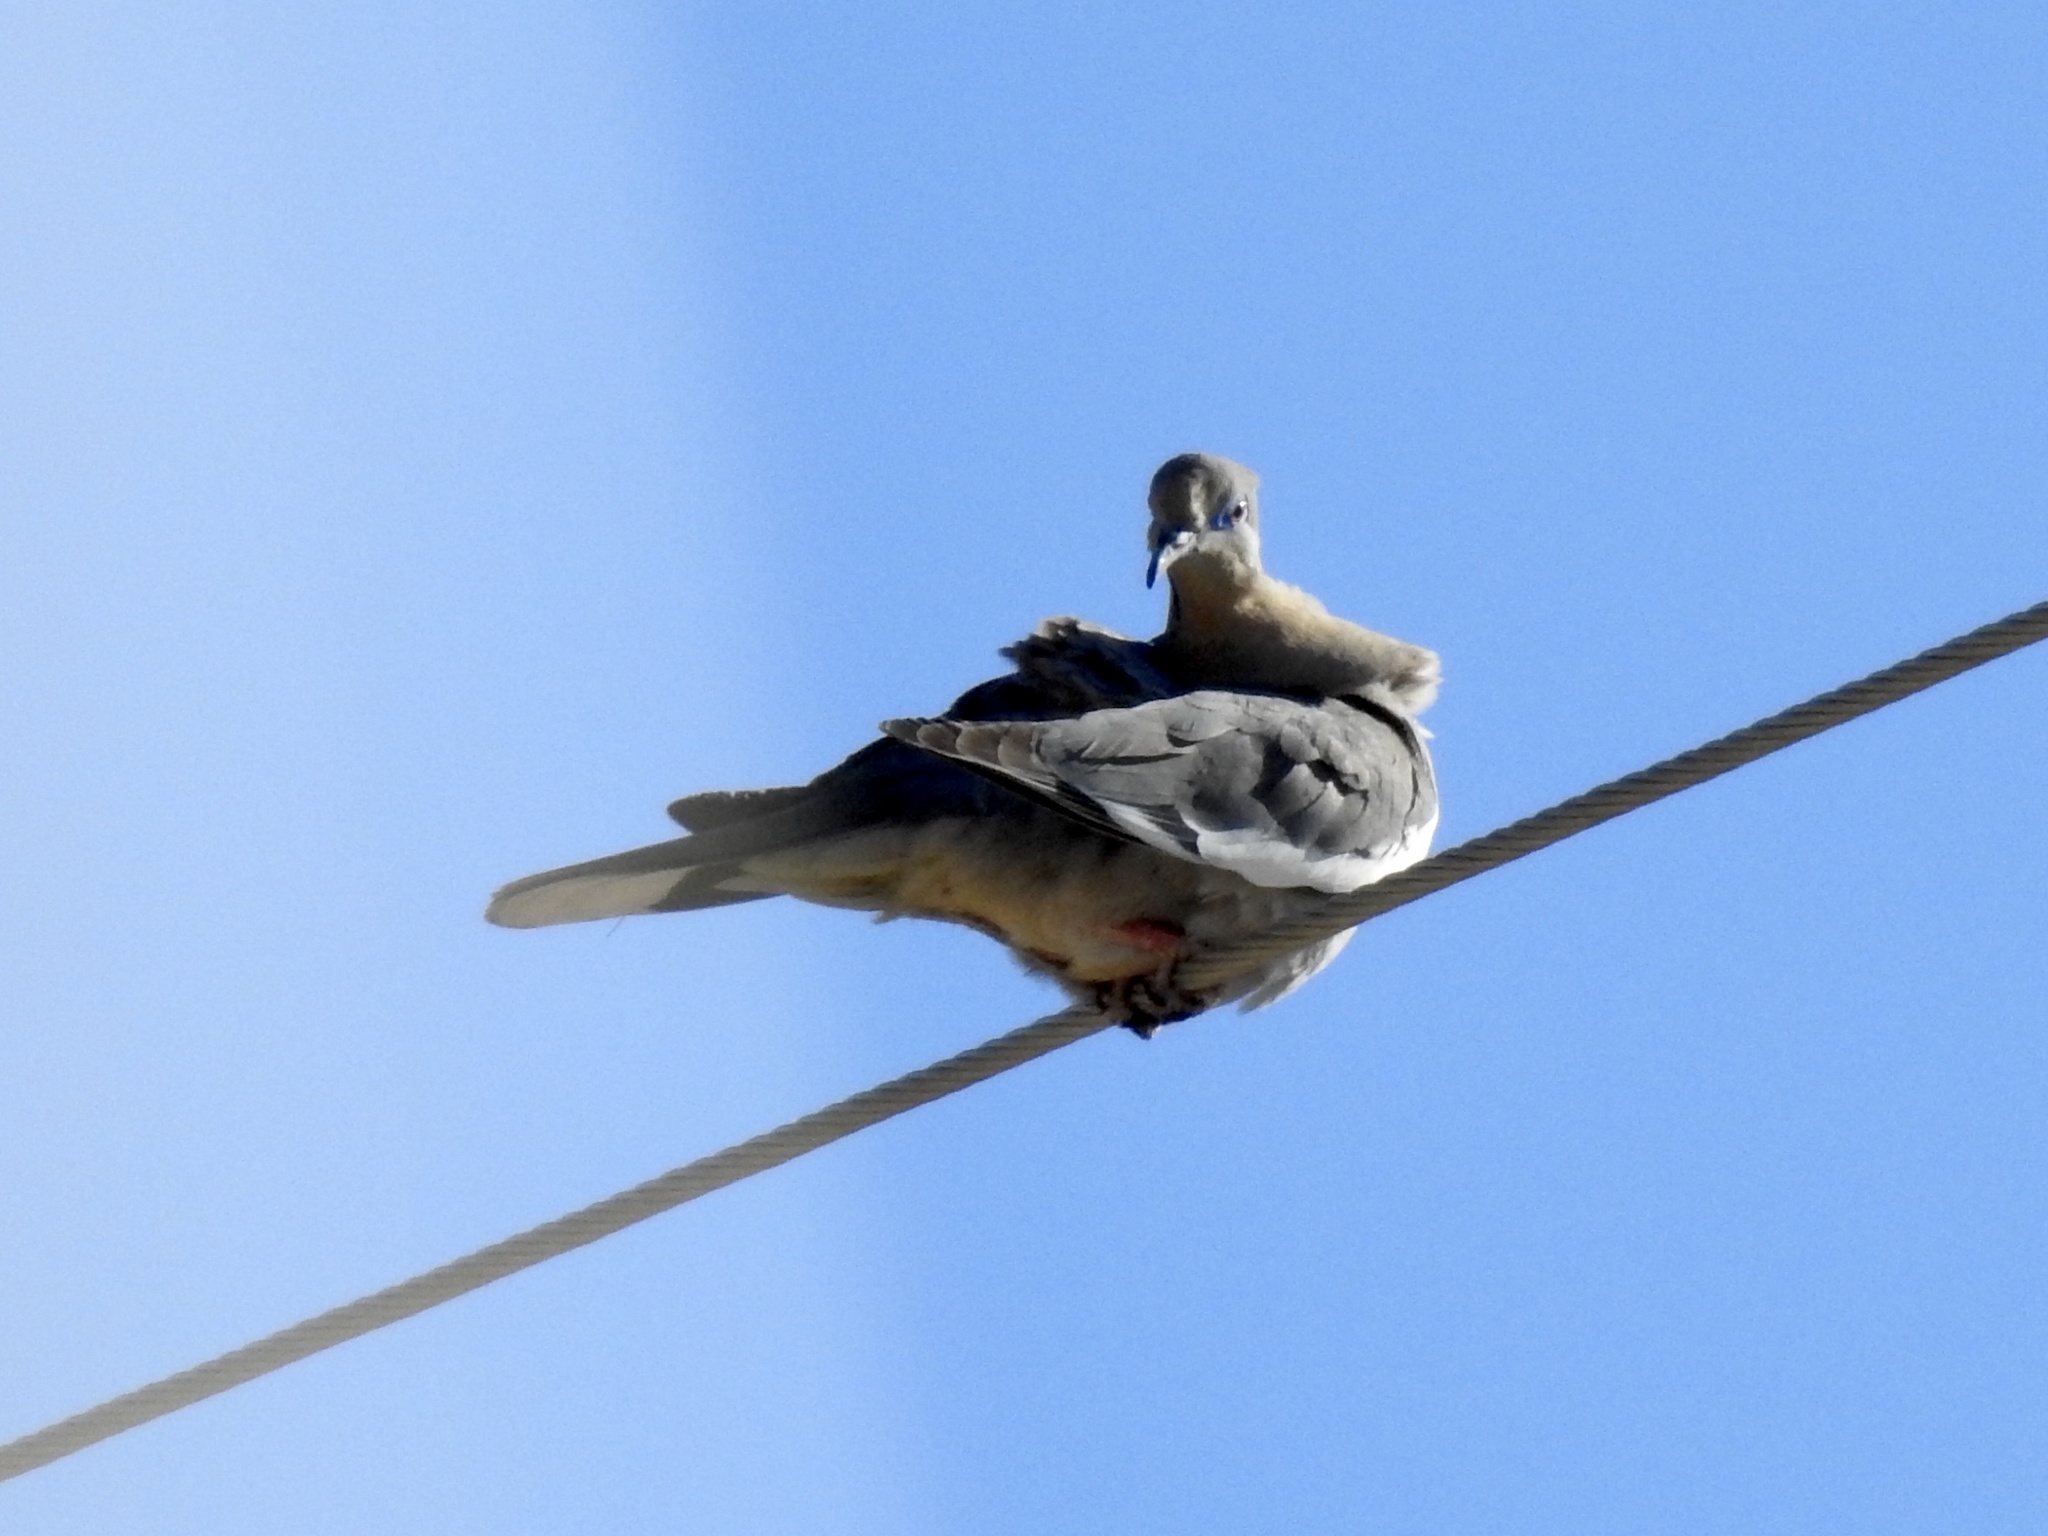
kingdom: Animalia
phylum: Chordata
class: Aves
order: Columbiformes
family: Columbidae
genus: Zenaida
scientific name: Zenaida asiatica
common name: White-winged dove
